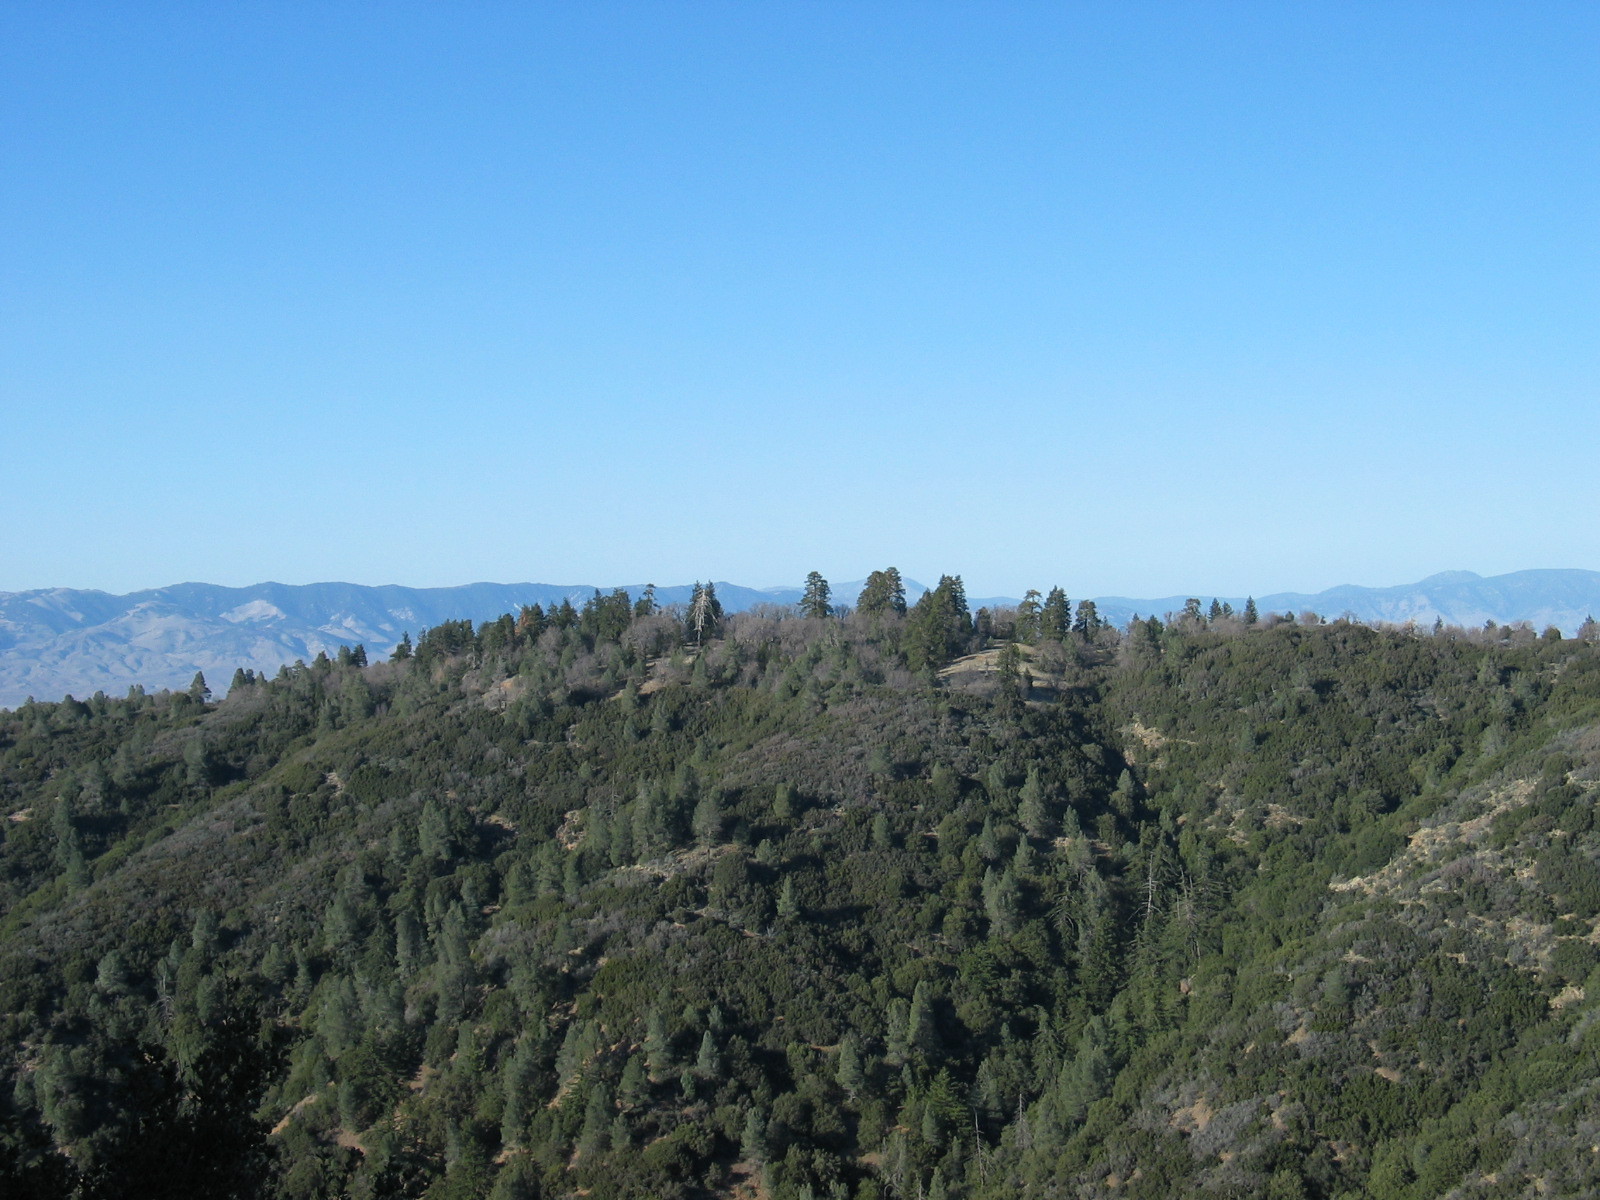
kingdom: Plantae
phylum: Tracheophyta
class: Pinopsida
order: Pinales
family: Pinaceae
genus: Pseudotsuga
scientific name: Pseudotsuga macrocarpa
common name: Big-cone douglas-fir
